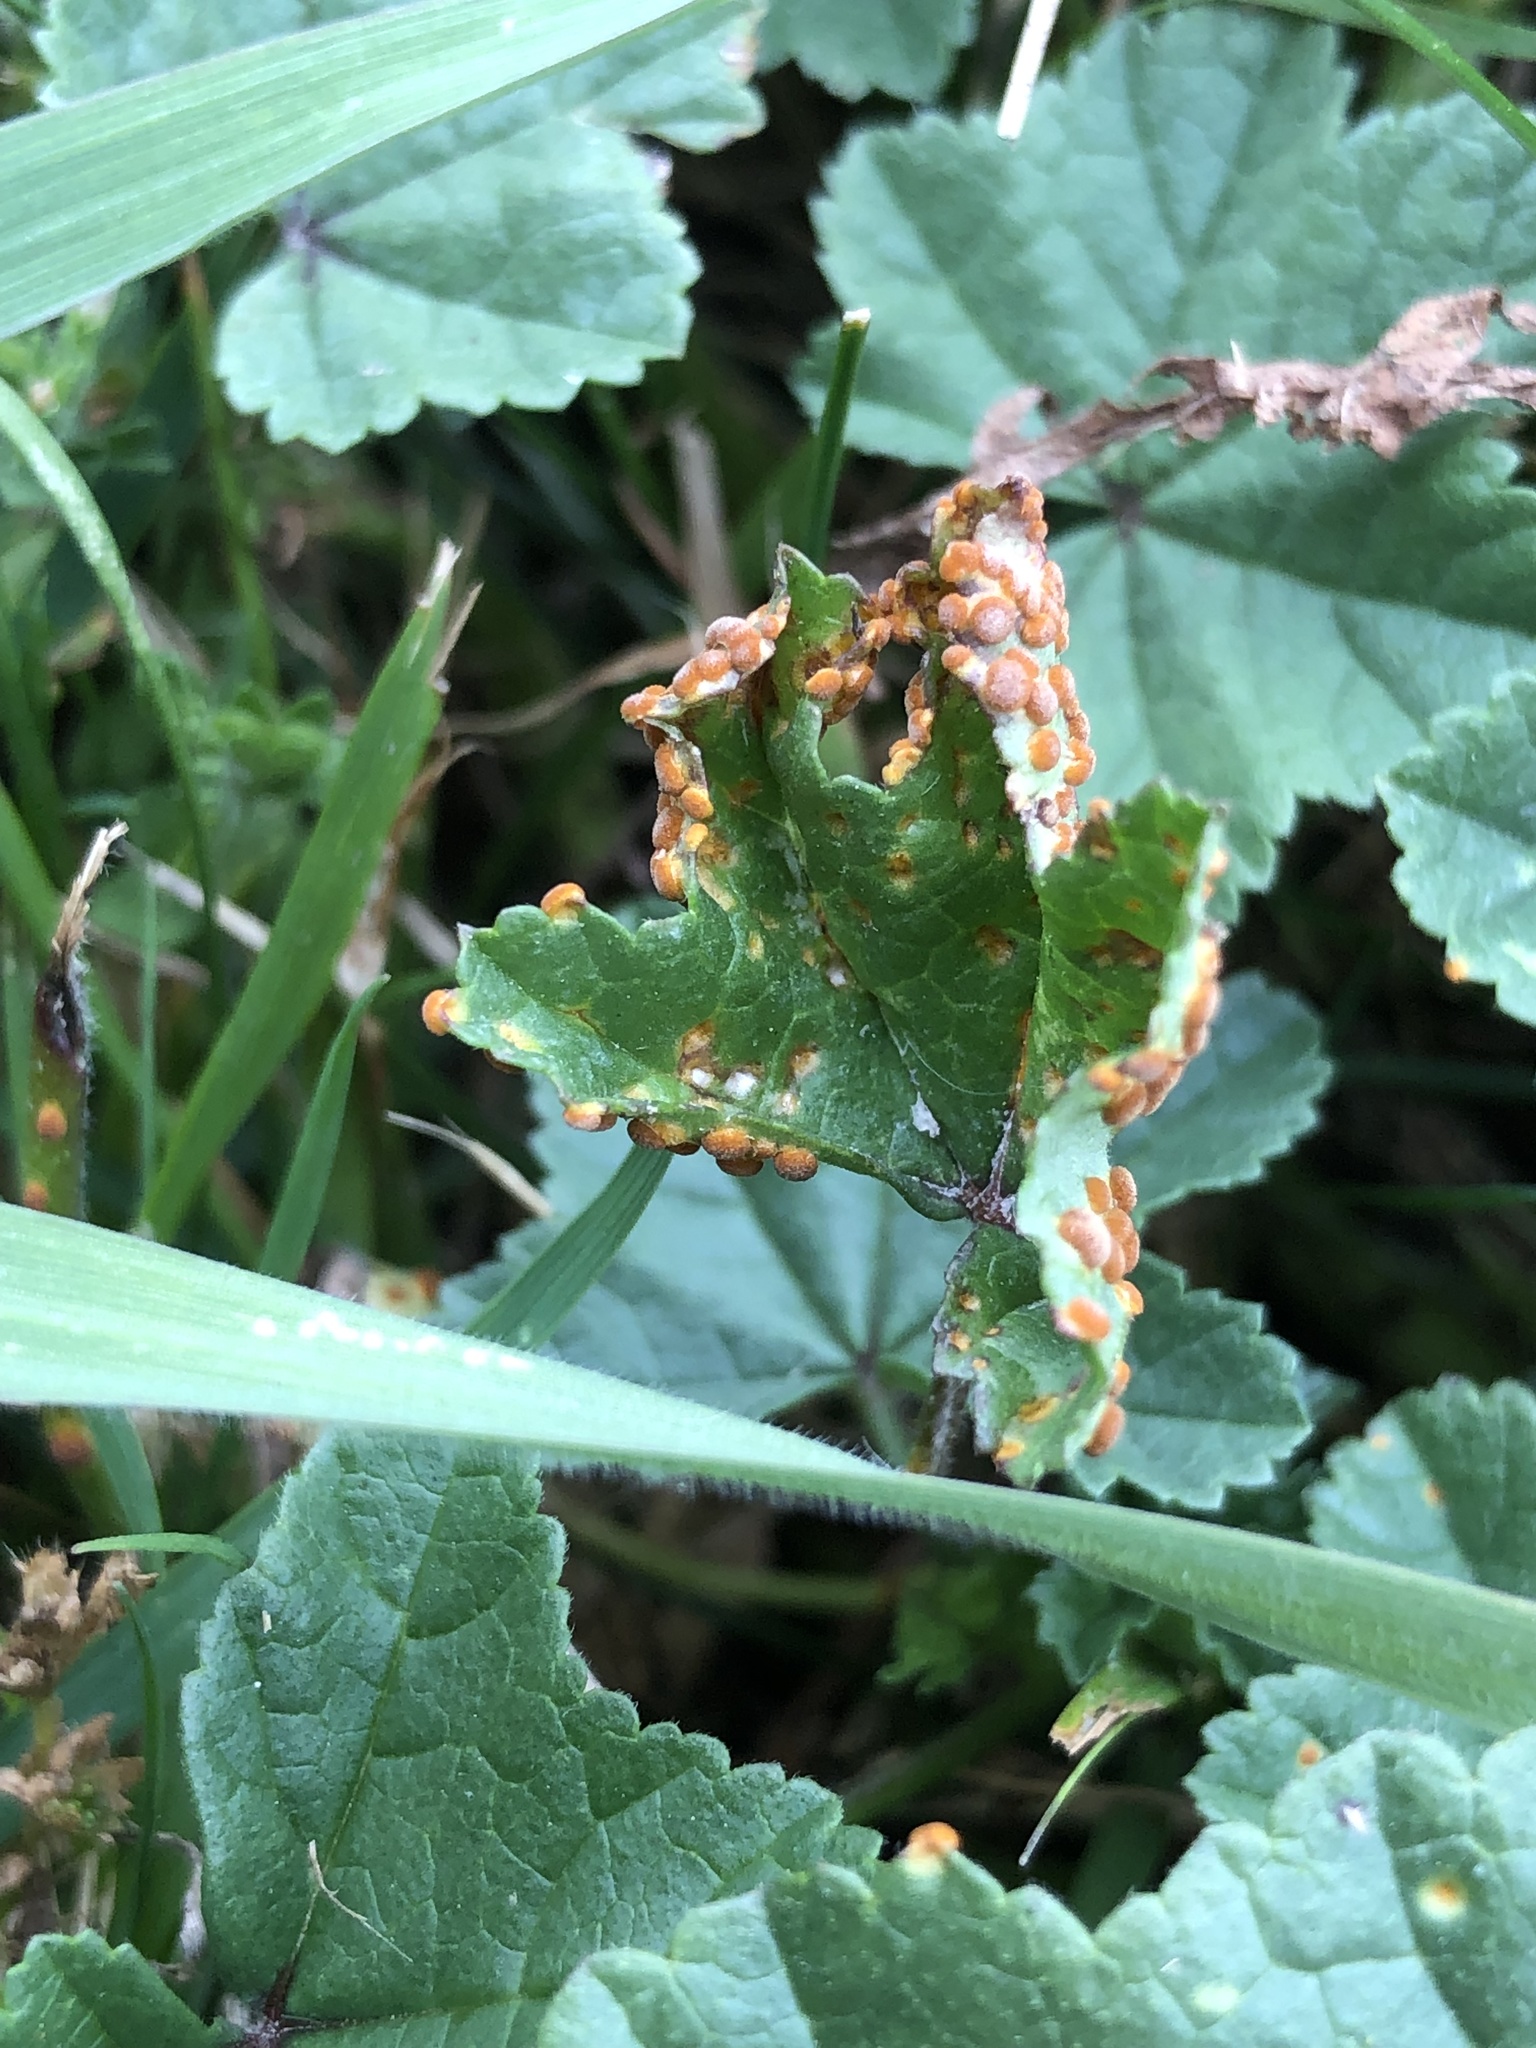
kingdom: Fungi
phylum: Basidiomycota
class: Pucciniomycetes
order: Pucciniales
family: Pucciniaceae
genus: Puccinia
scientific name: Puccinia malvacearum
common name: Hollyhock rust
